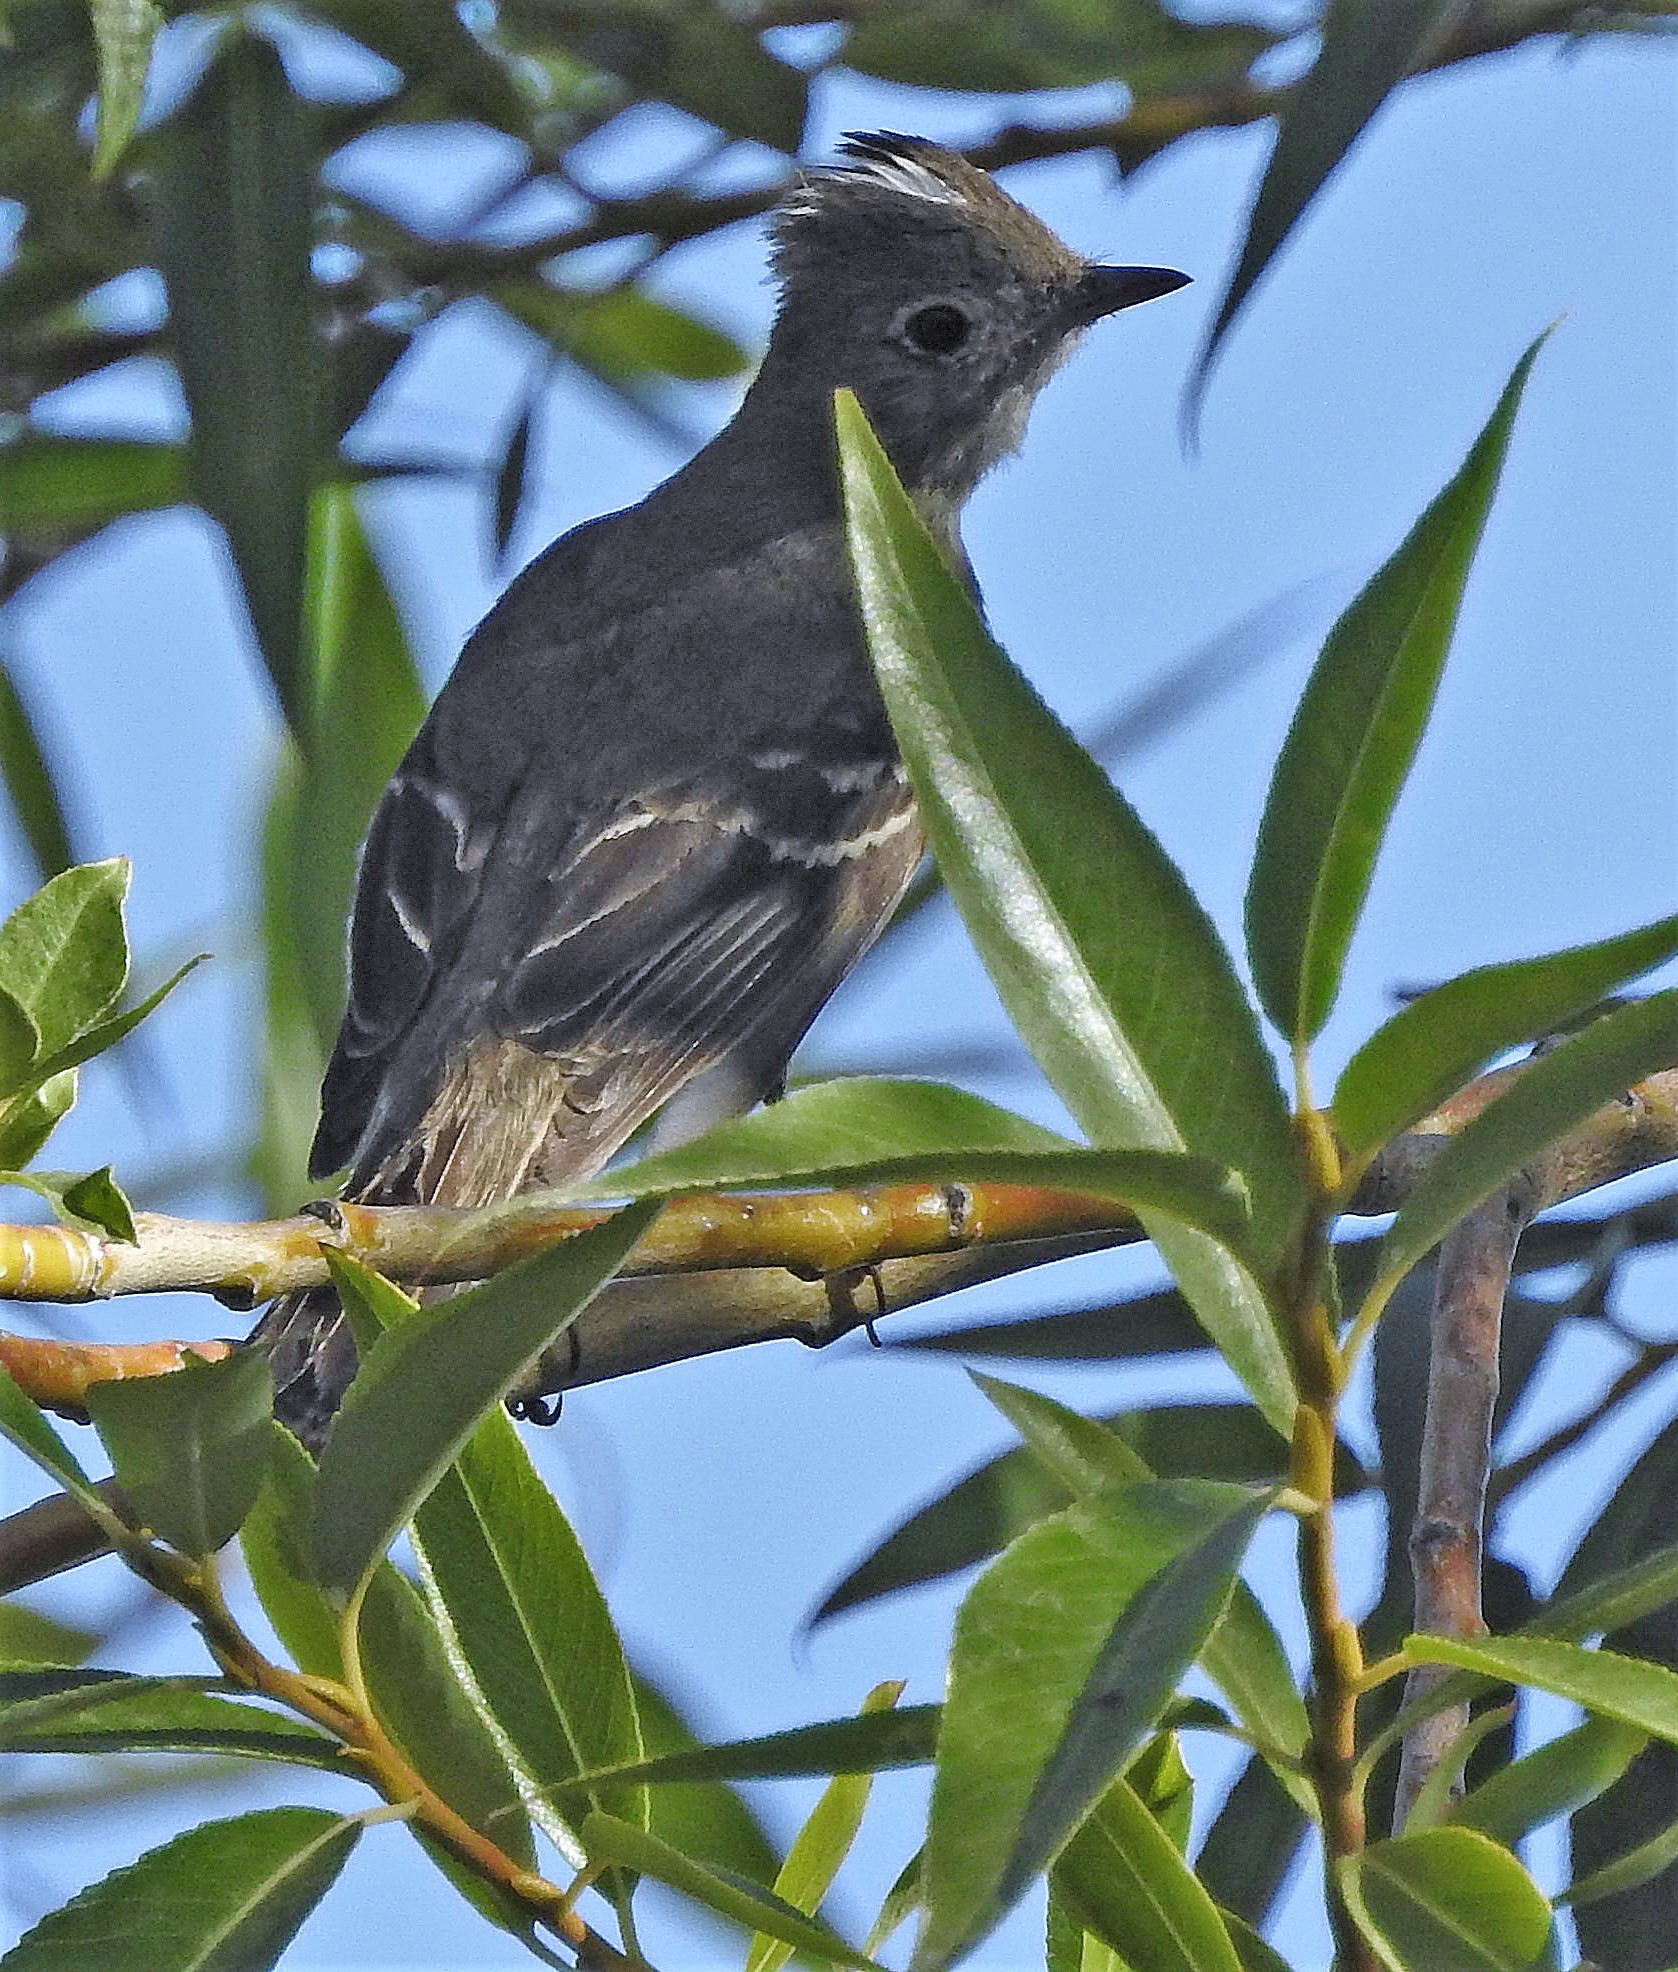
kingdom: Animalia
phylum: Chordata
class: Aves
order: Passeriformes
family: Tyrannidae
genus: Elaenia
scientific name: Elaenia albiceps
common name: White-crested elaenia
